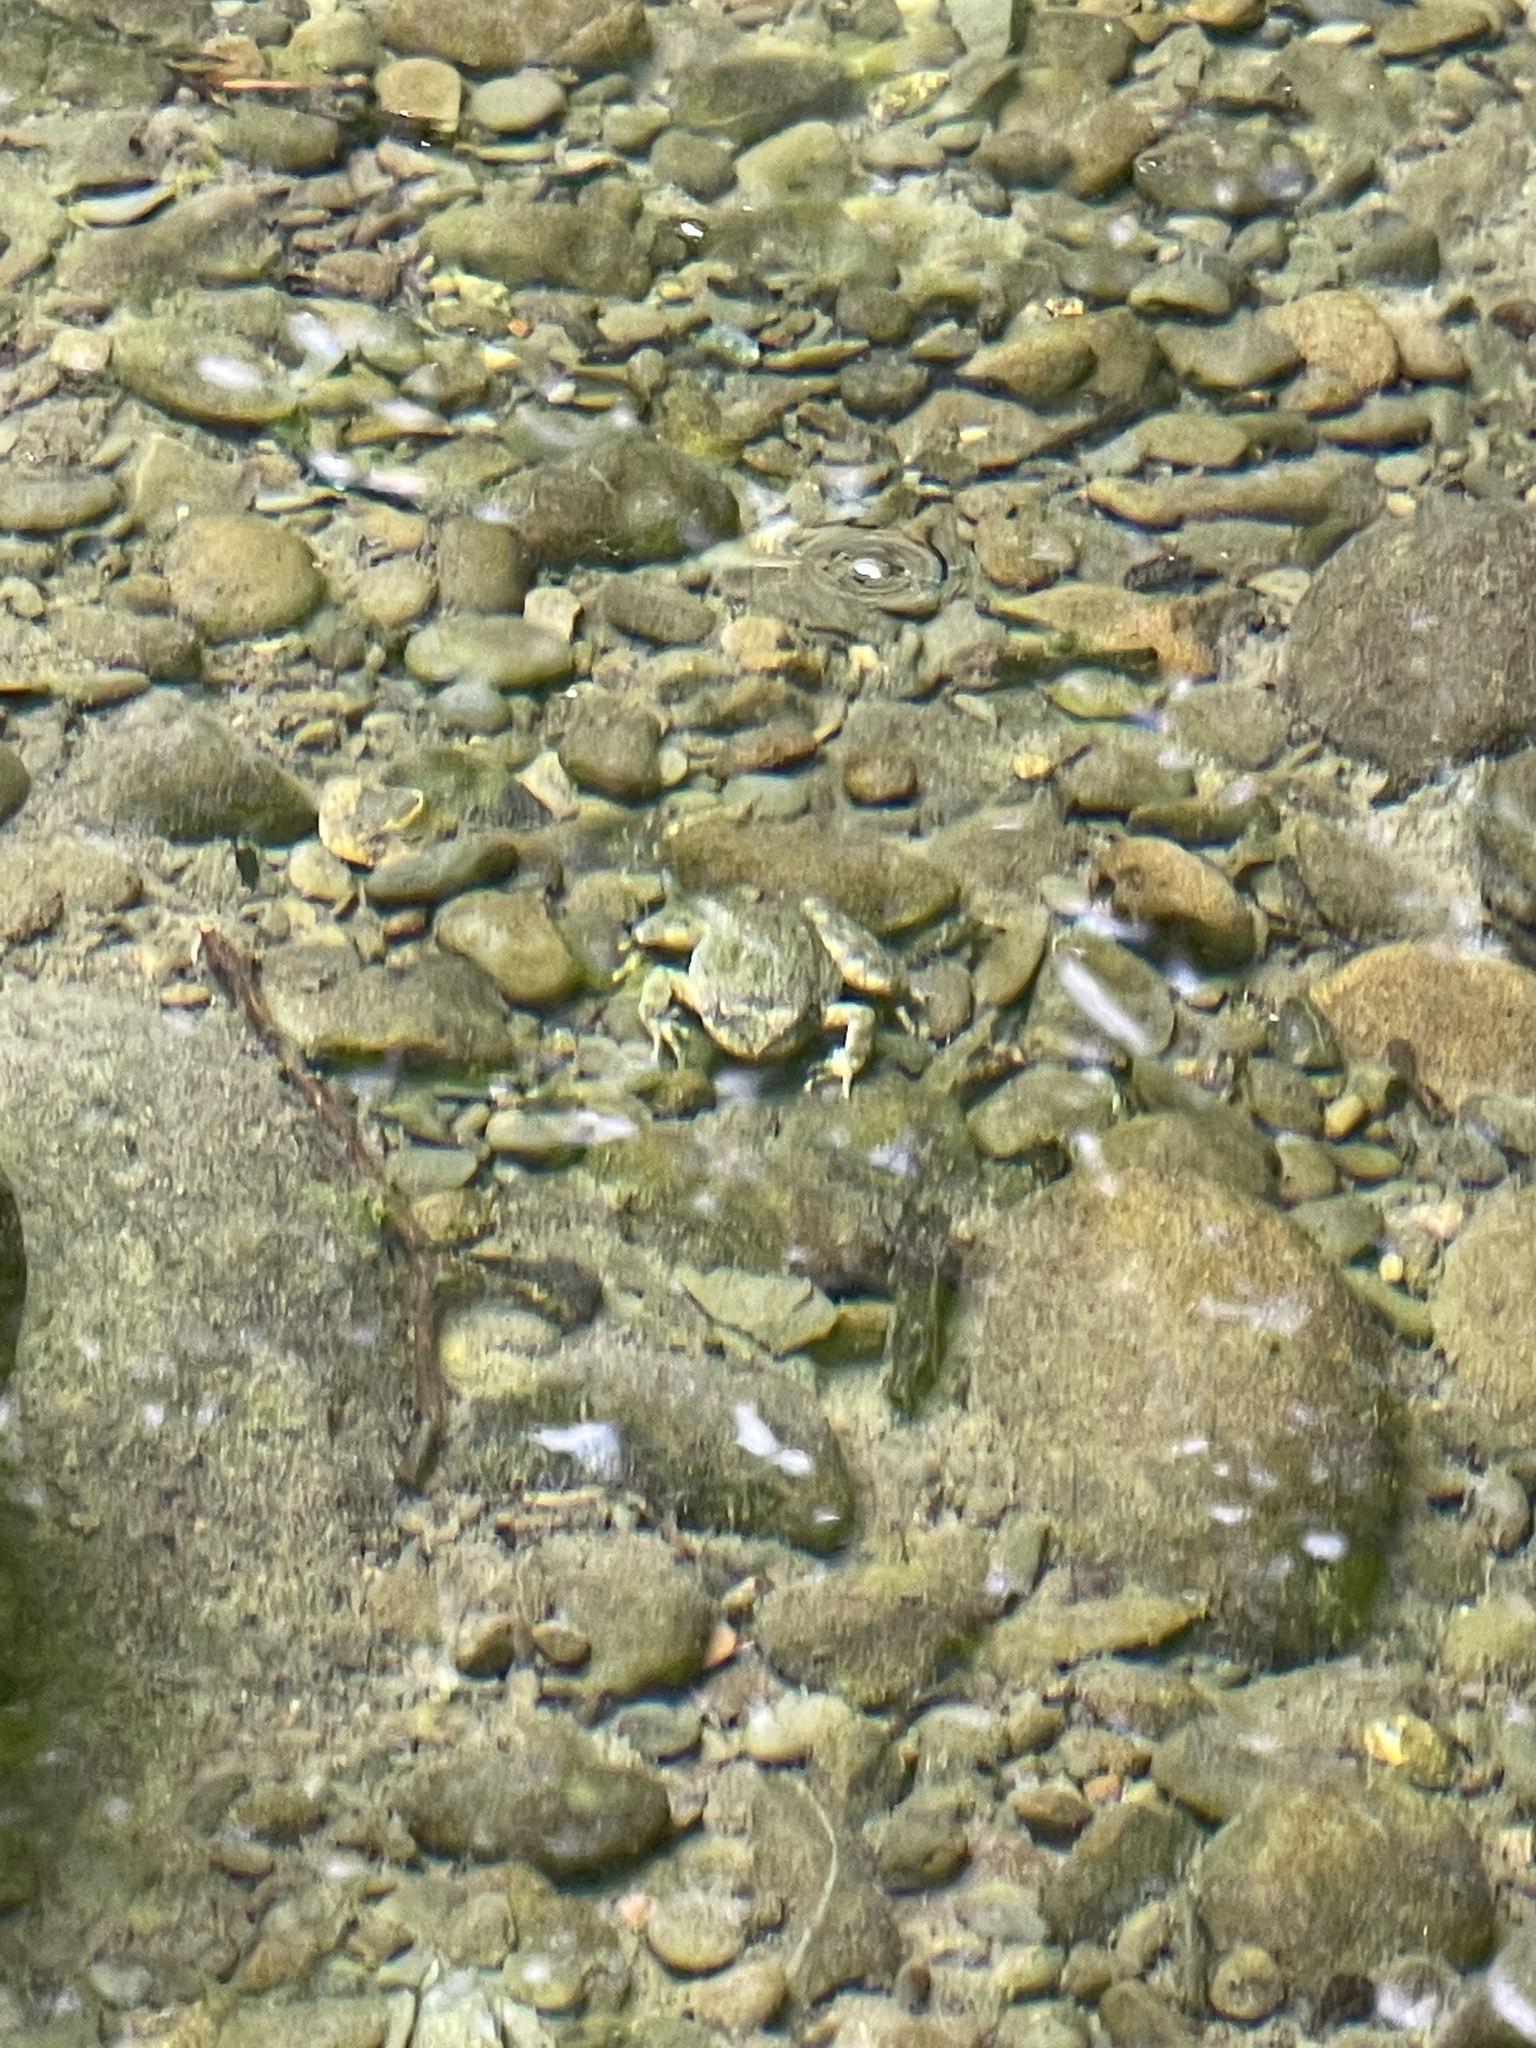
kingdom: Animalia
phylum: Chordata
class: Amphibia
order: Anura
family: Ranidae
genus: Rana
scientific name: Rana boylii
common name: Foothill yellow-legged frog
